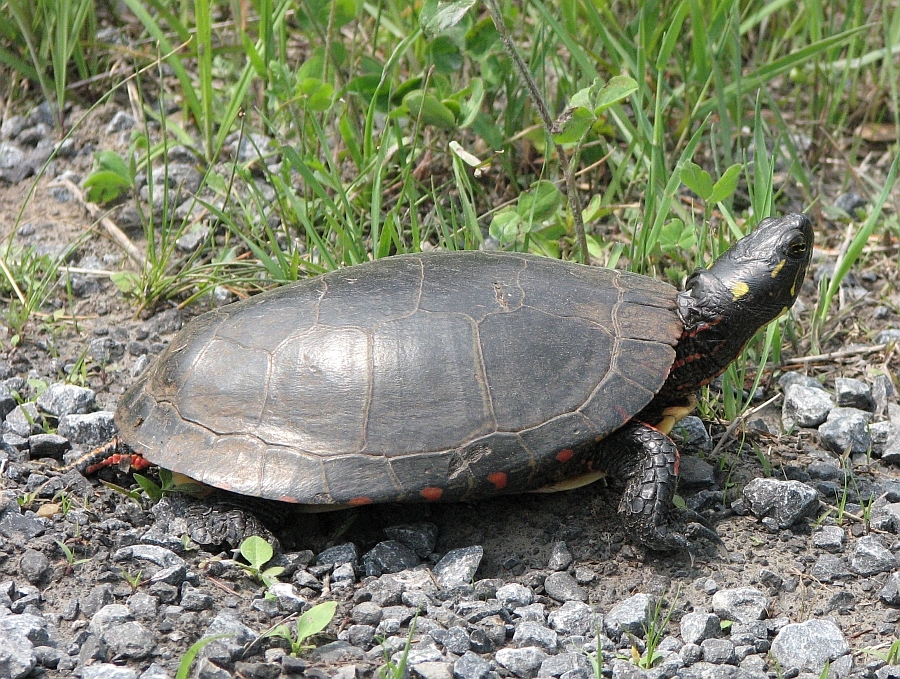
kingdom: Animalia
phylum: Chordata
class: Testudines
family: Emydidae
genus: Chrysemys
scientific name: Chrysemys picta
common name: Painted turtle
